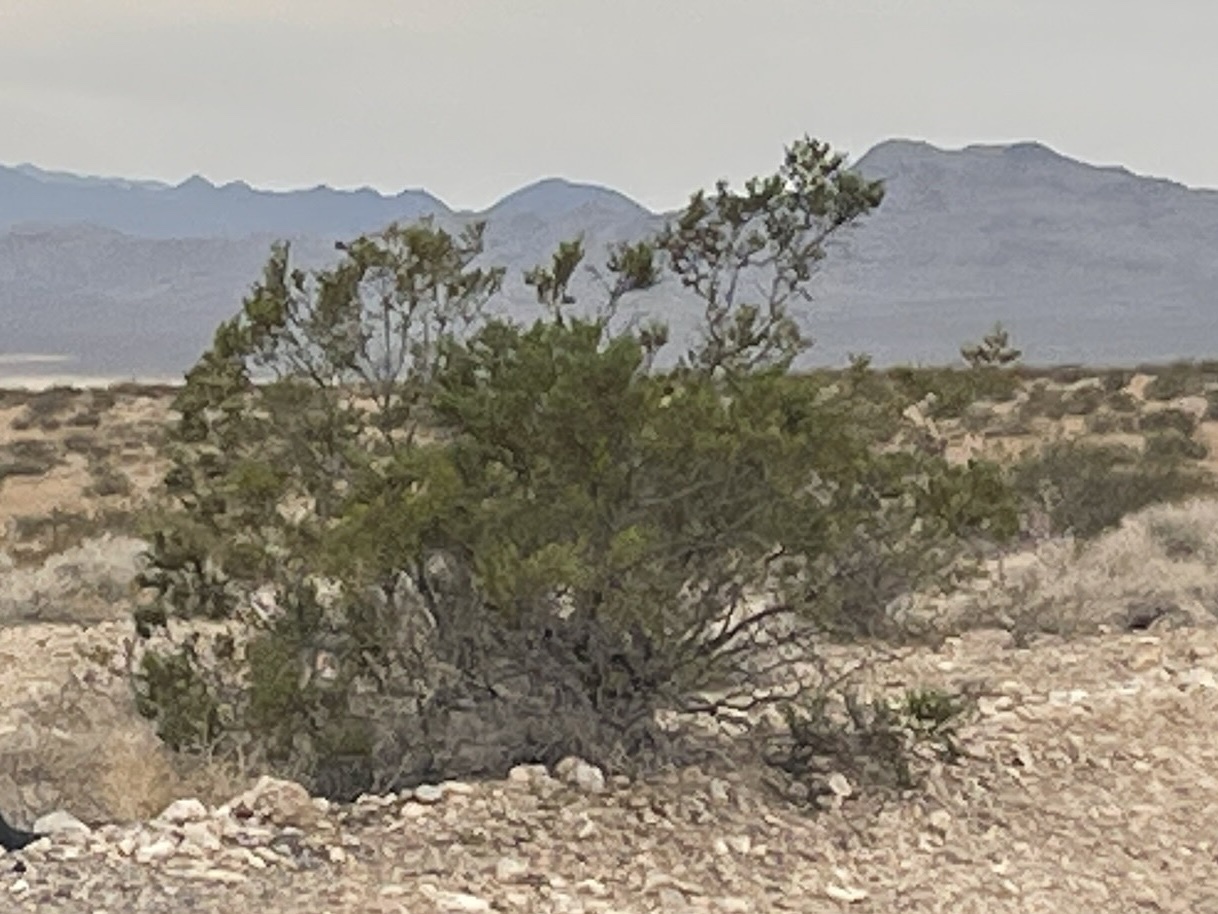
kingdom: Plantae
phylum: Tracheophyta
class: Magnoliopsida
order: Zygophyllales
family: Zygophyllaceae
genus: Larrea
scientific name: Larrea tridentata
